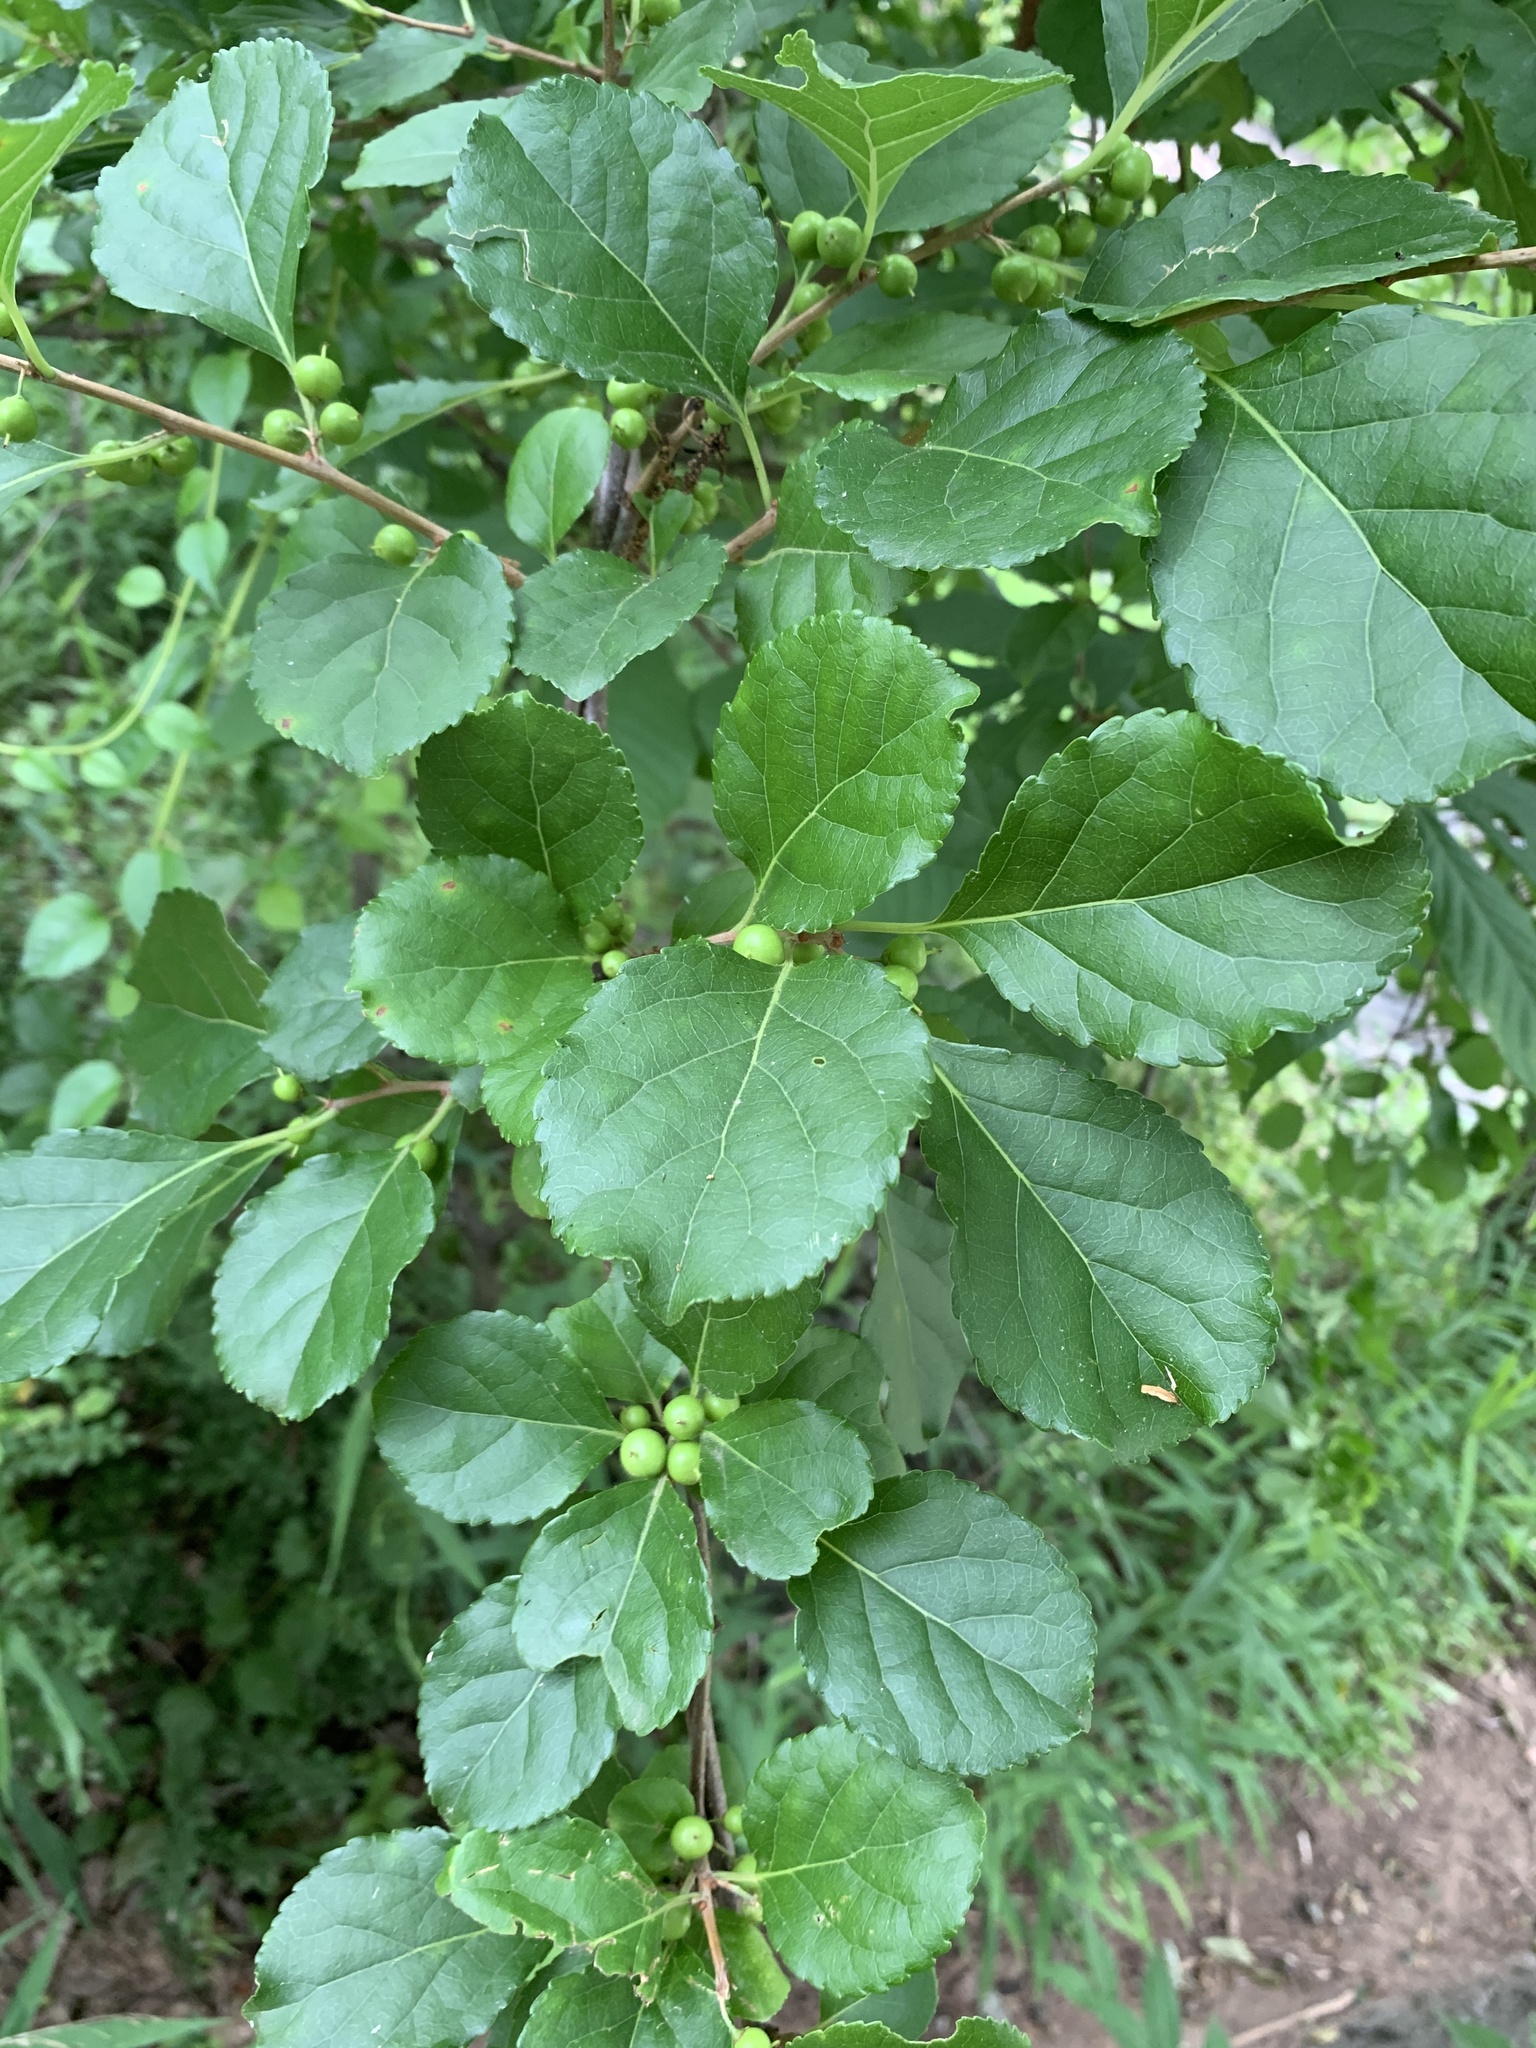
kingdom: Plantae
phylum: Tracheophyta
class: Magnoliopsida
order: Celastrales
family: Celastraceae
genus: Celastrus
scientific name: Celastrus orbiculatus
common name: Oriental bittersweet
